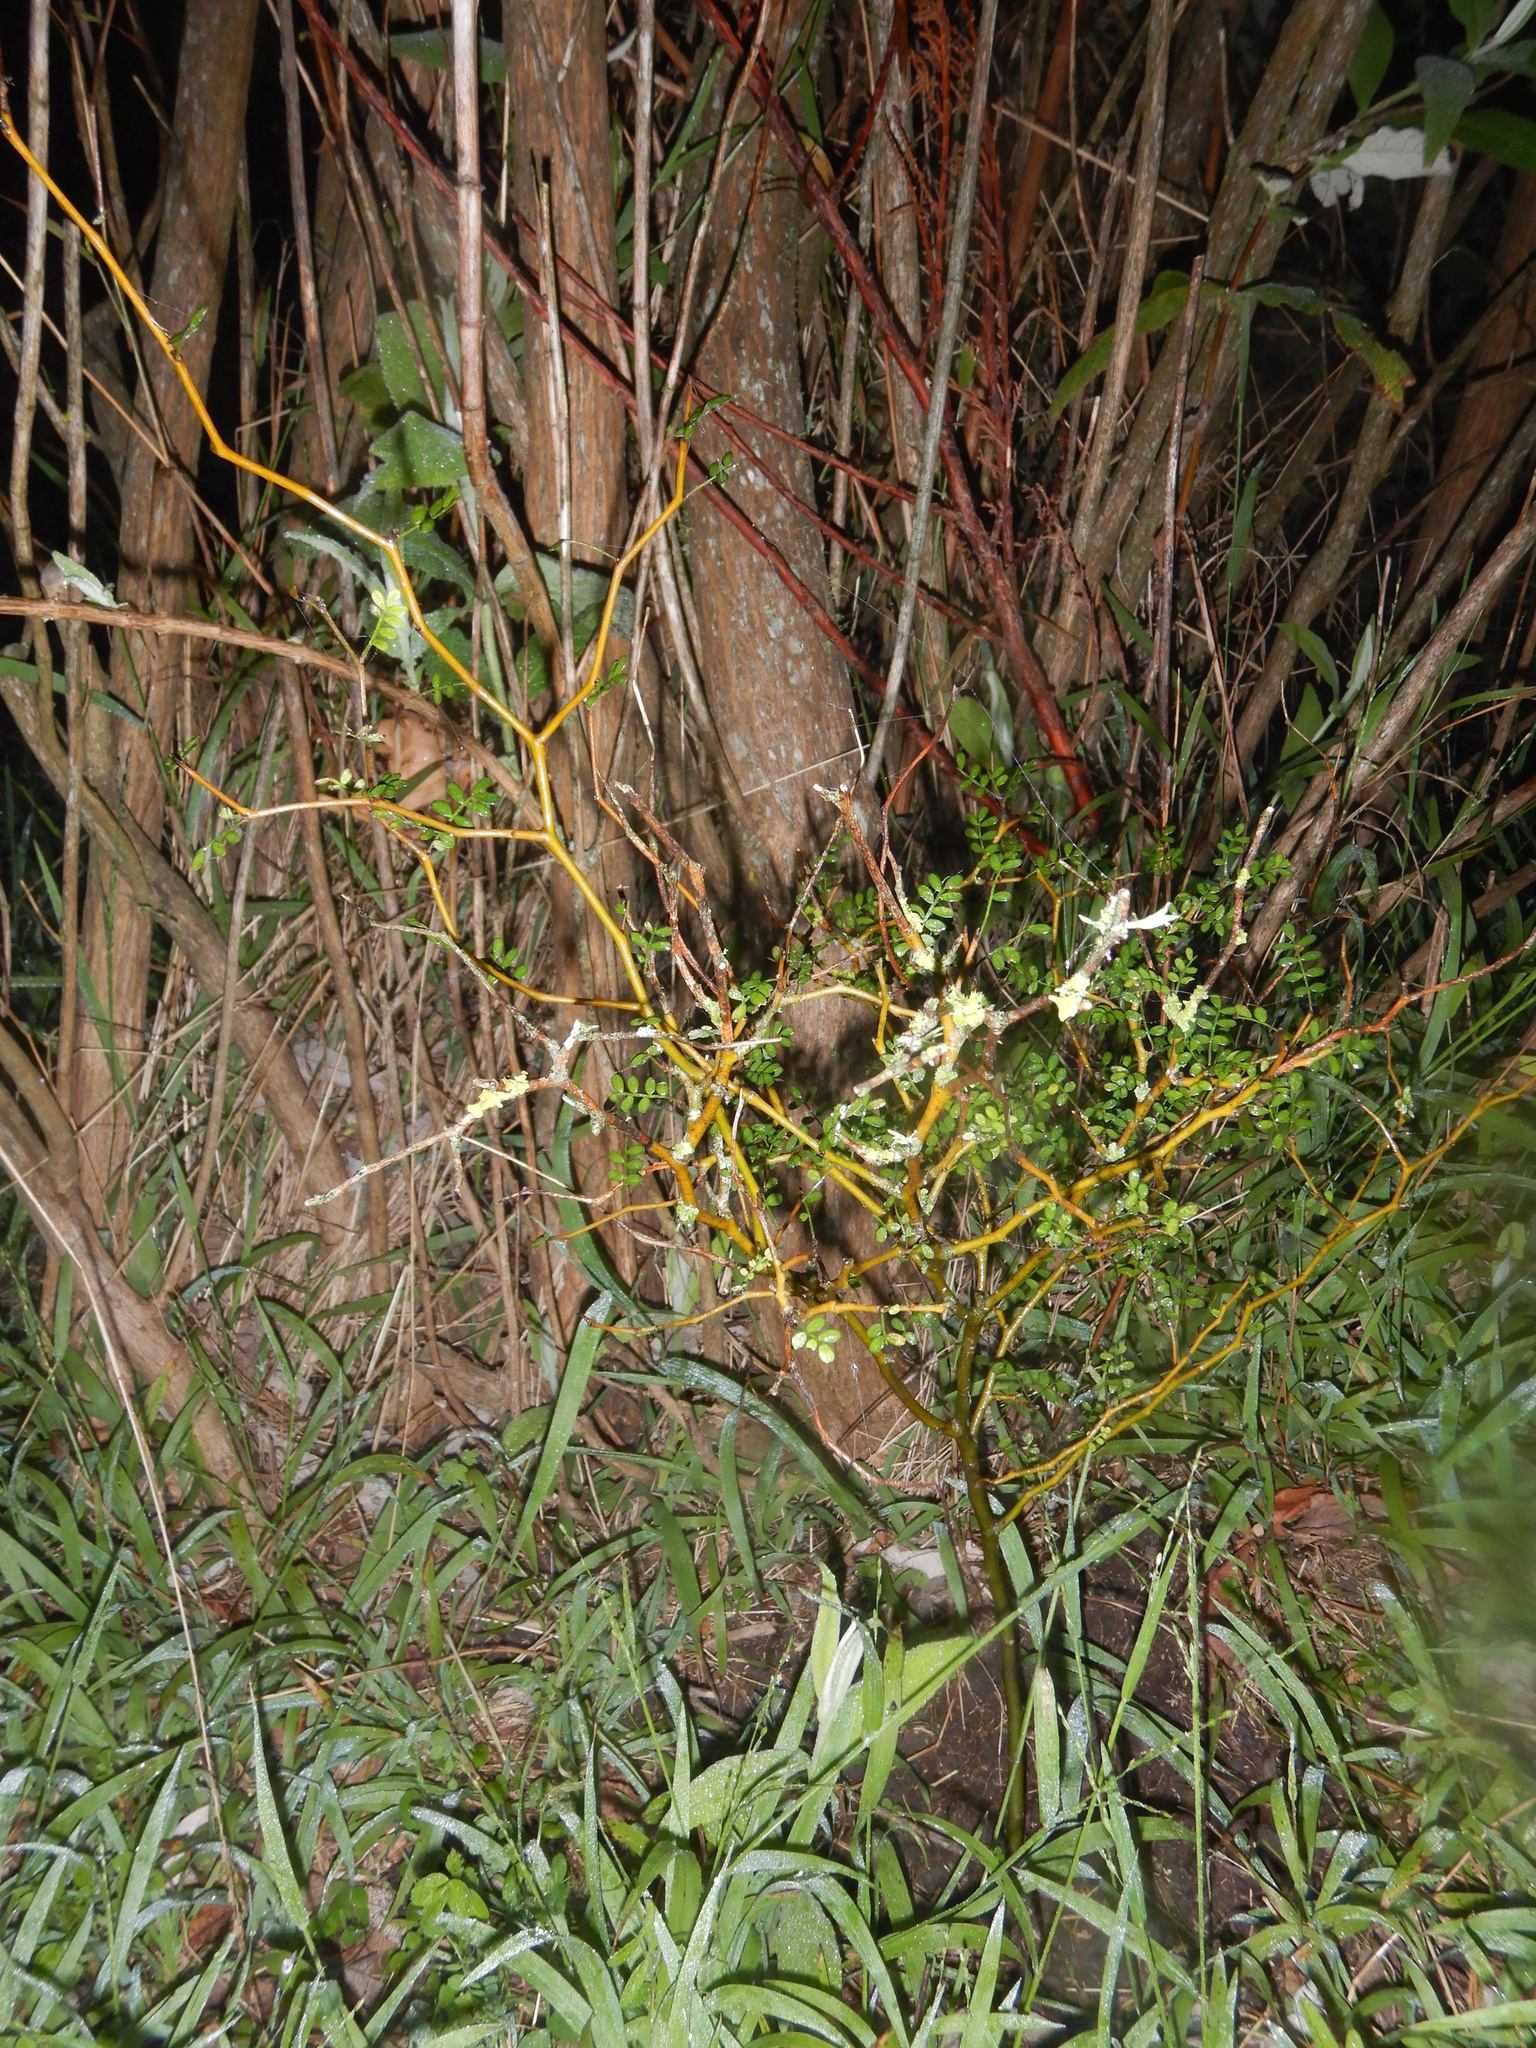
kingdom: Plantae
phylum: Tracheophyta
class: Magnoliopsida
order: Fabales
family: Fabaceae
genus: Sophora
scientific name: Sophora microphylla
